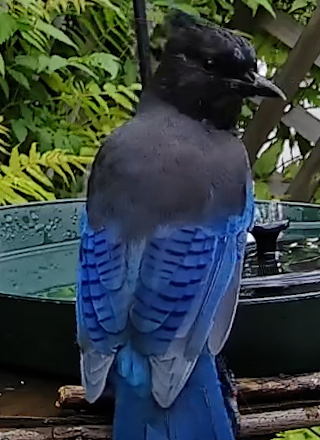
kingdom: Animalia
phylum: Chordata
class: Aves
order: Passeriformes
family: Corvidae
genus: Cyanocitta
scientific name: Cyanocitta stelleri
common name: Steller's jay
